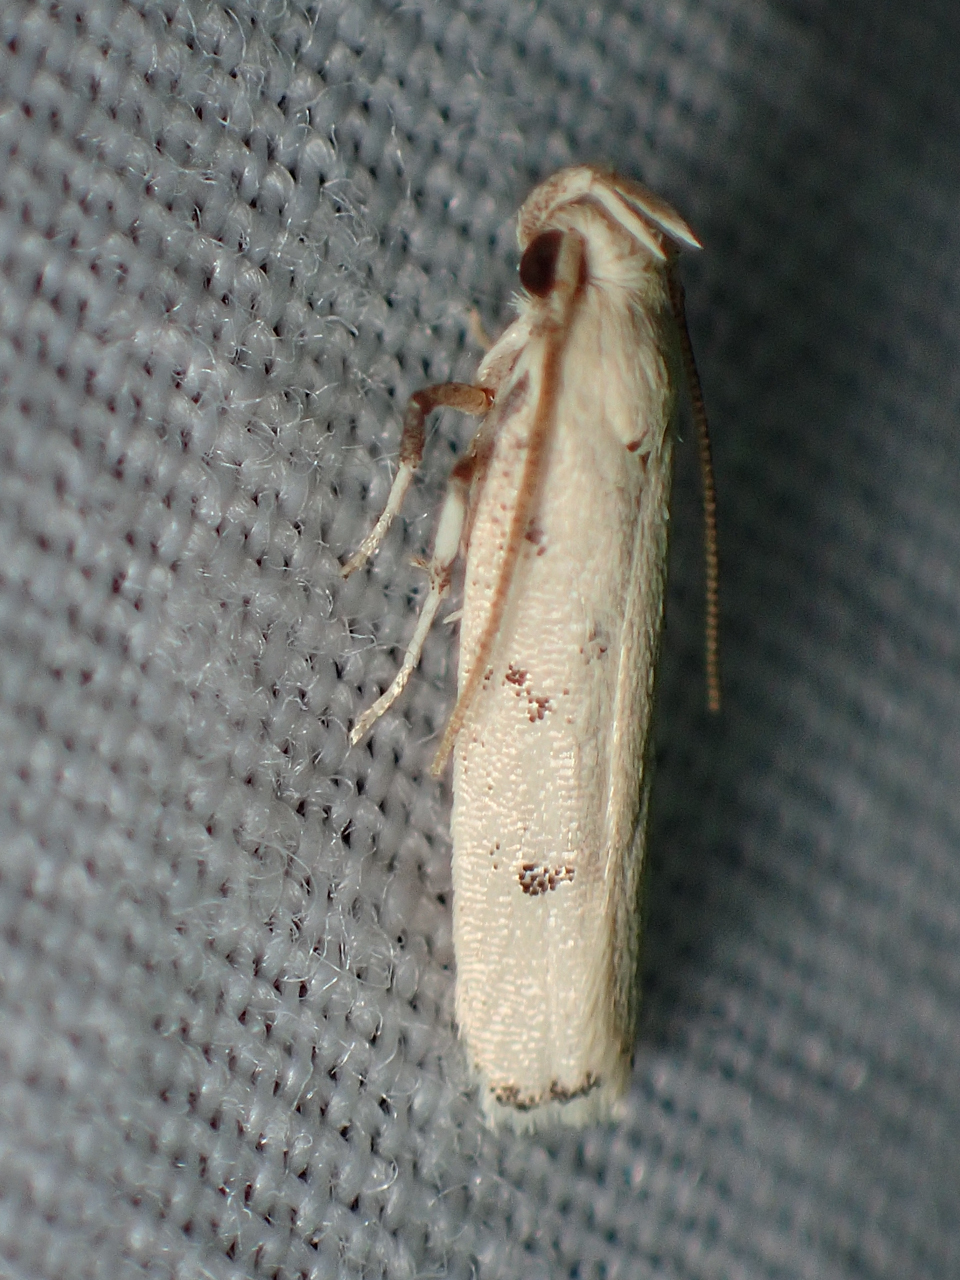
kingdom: Animalia
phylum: Arthropoda
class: Insecta
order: Lepidoptera
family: Autostichidae
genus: Glyphidocera
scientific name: Glyphidocera lactiflosella
